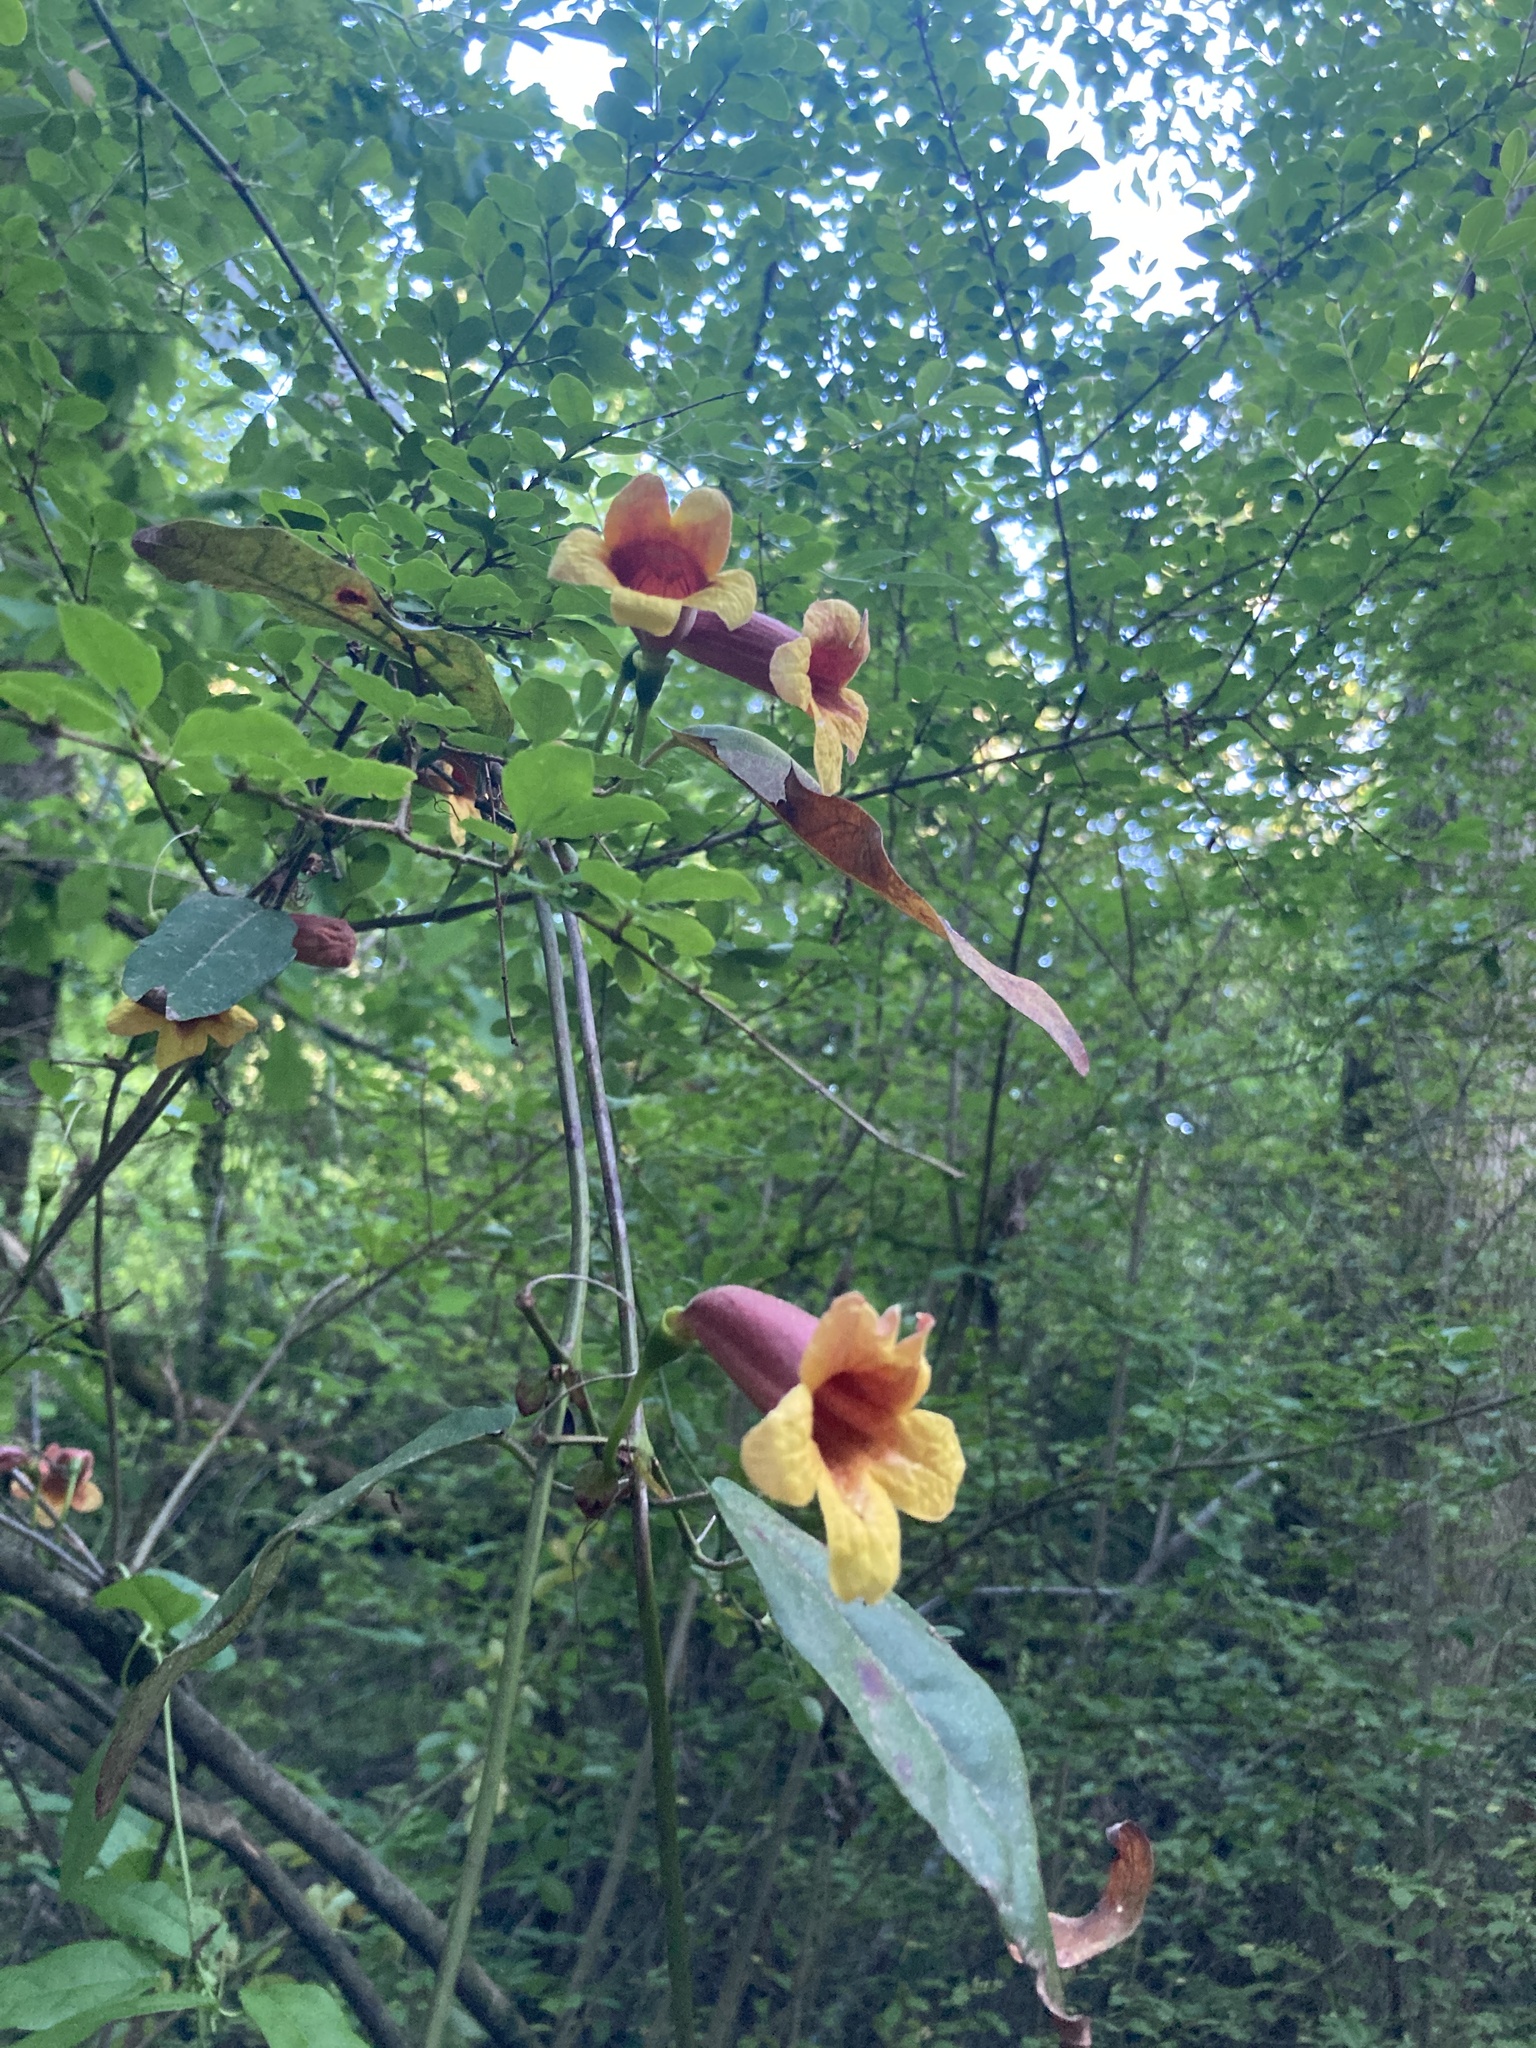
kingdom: Plantae
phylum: Tracheophyta
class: Magnoliopsida
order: Lamiales
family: Bignoniaceae
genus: Bignonia
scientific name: Bignonia capreolata
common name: Crossvine
